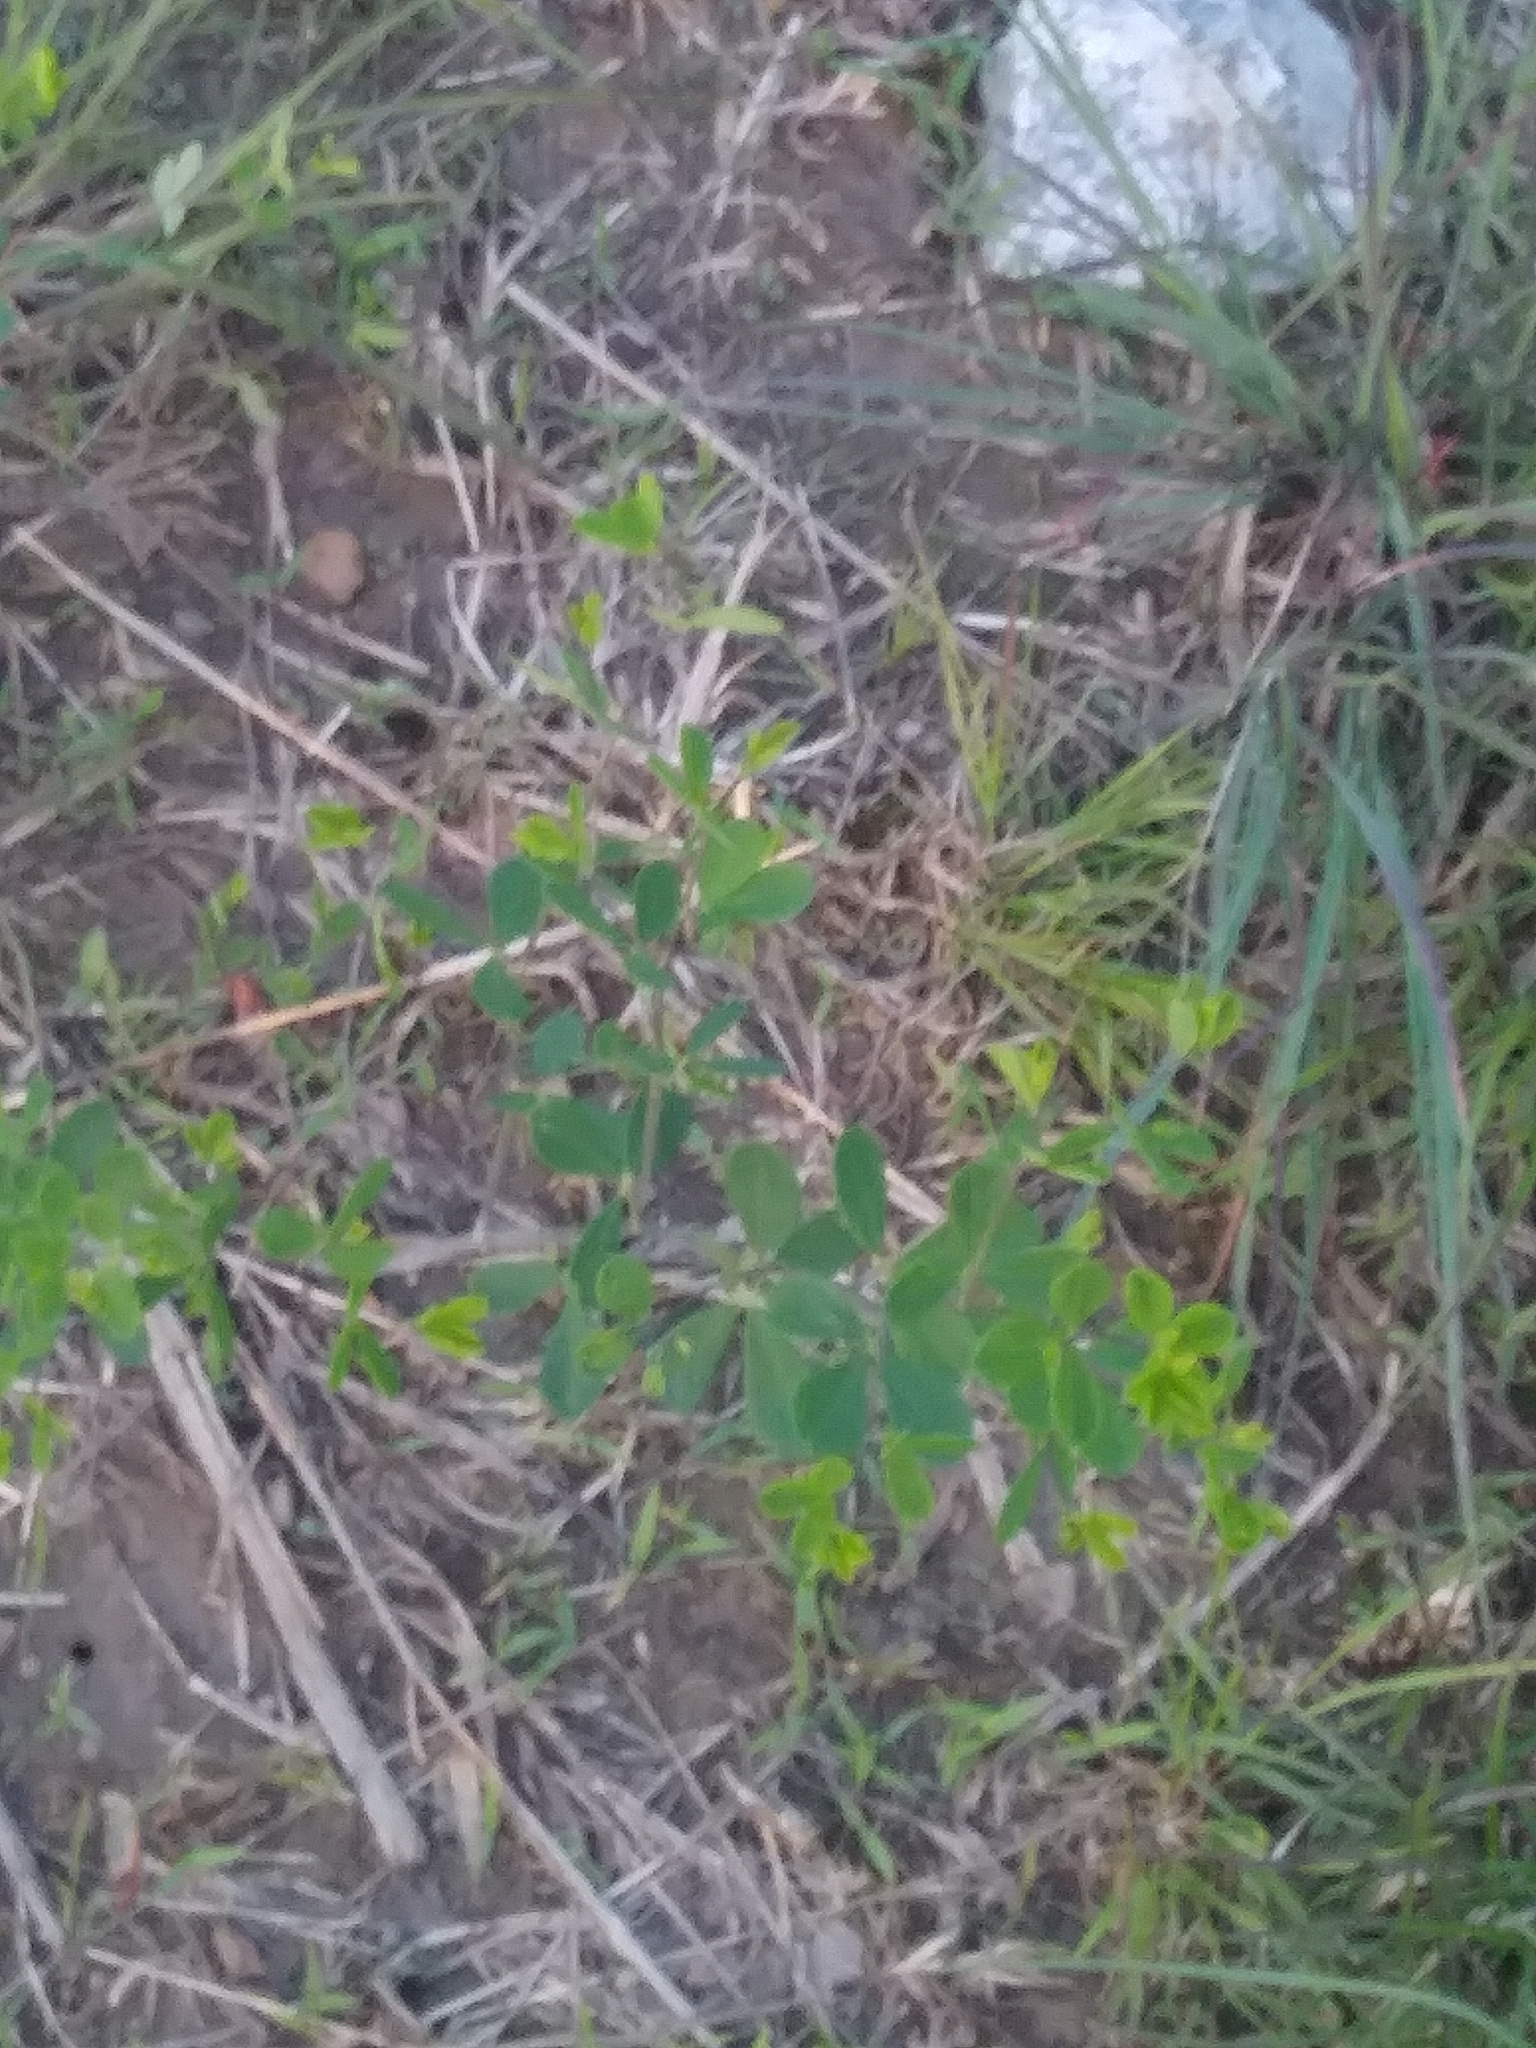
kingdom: Plantae
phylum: Tracheophyta
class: Magnoliopsida
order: Fabales
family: Fabaceae
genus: Baptisia
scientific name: Baptisia tinctoria
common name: Wild indigo
